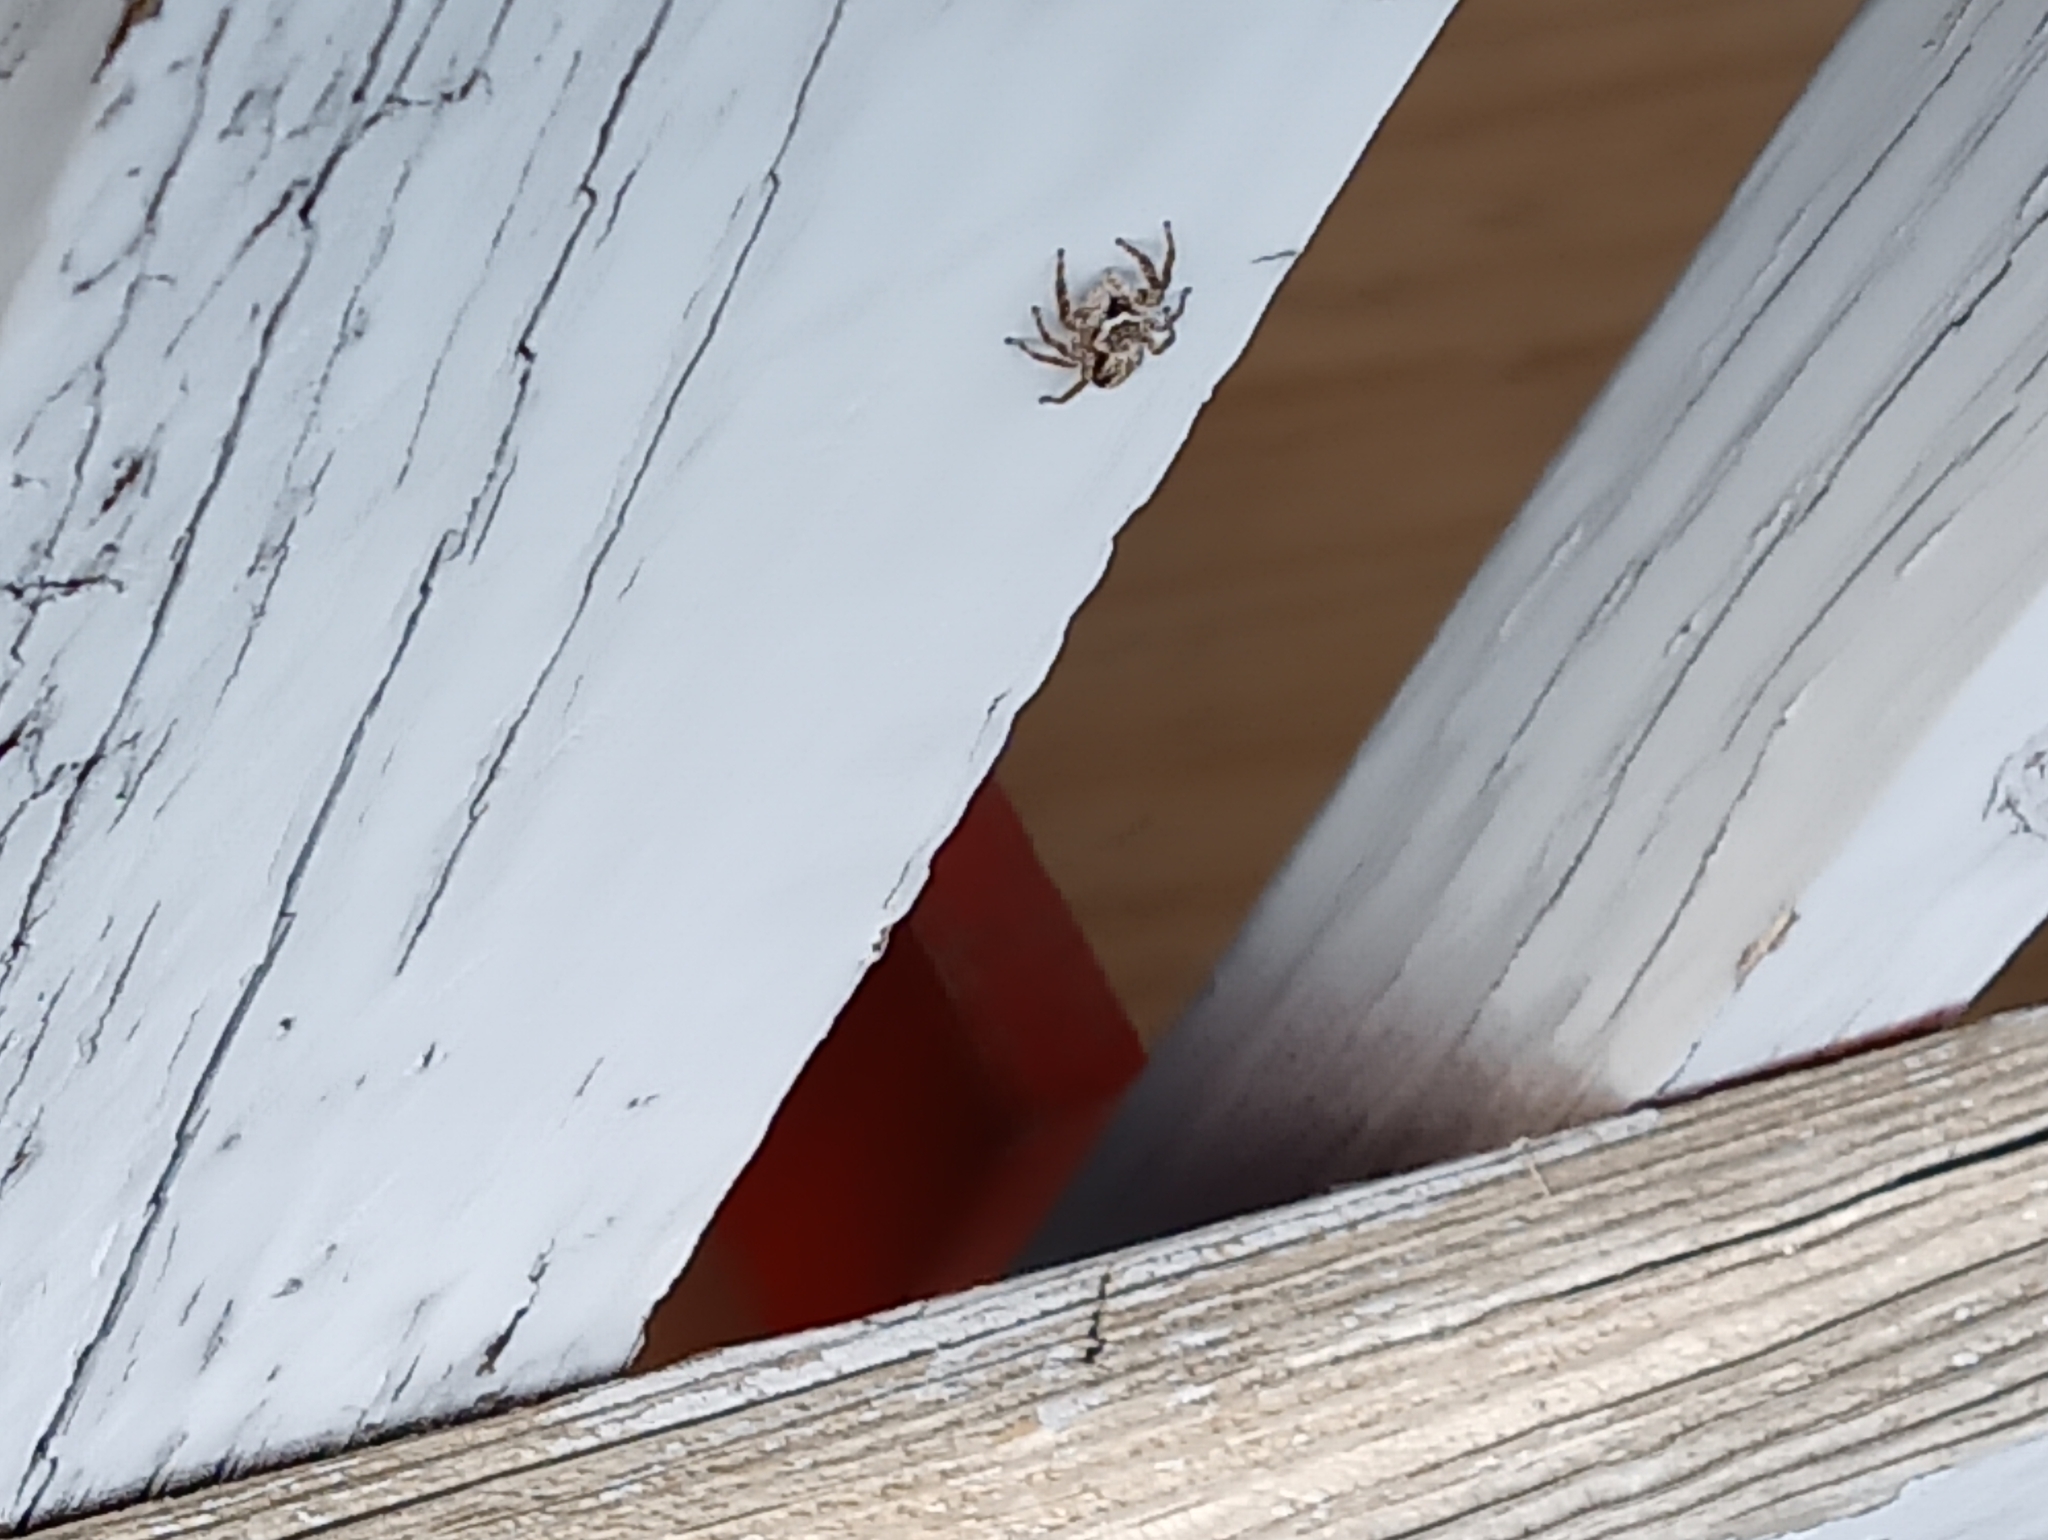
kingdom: Animalia
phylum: Arthropoda
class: Arachnida
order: Araneae
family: Salticidae
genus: Platycryptus
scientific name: Platycryptus undatus
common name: Tan jumping spider
